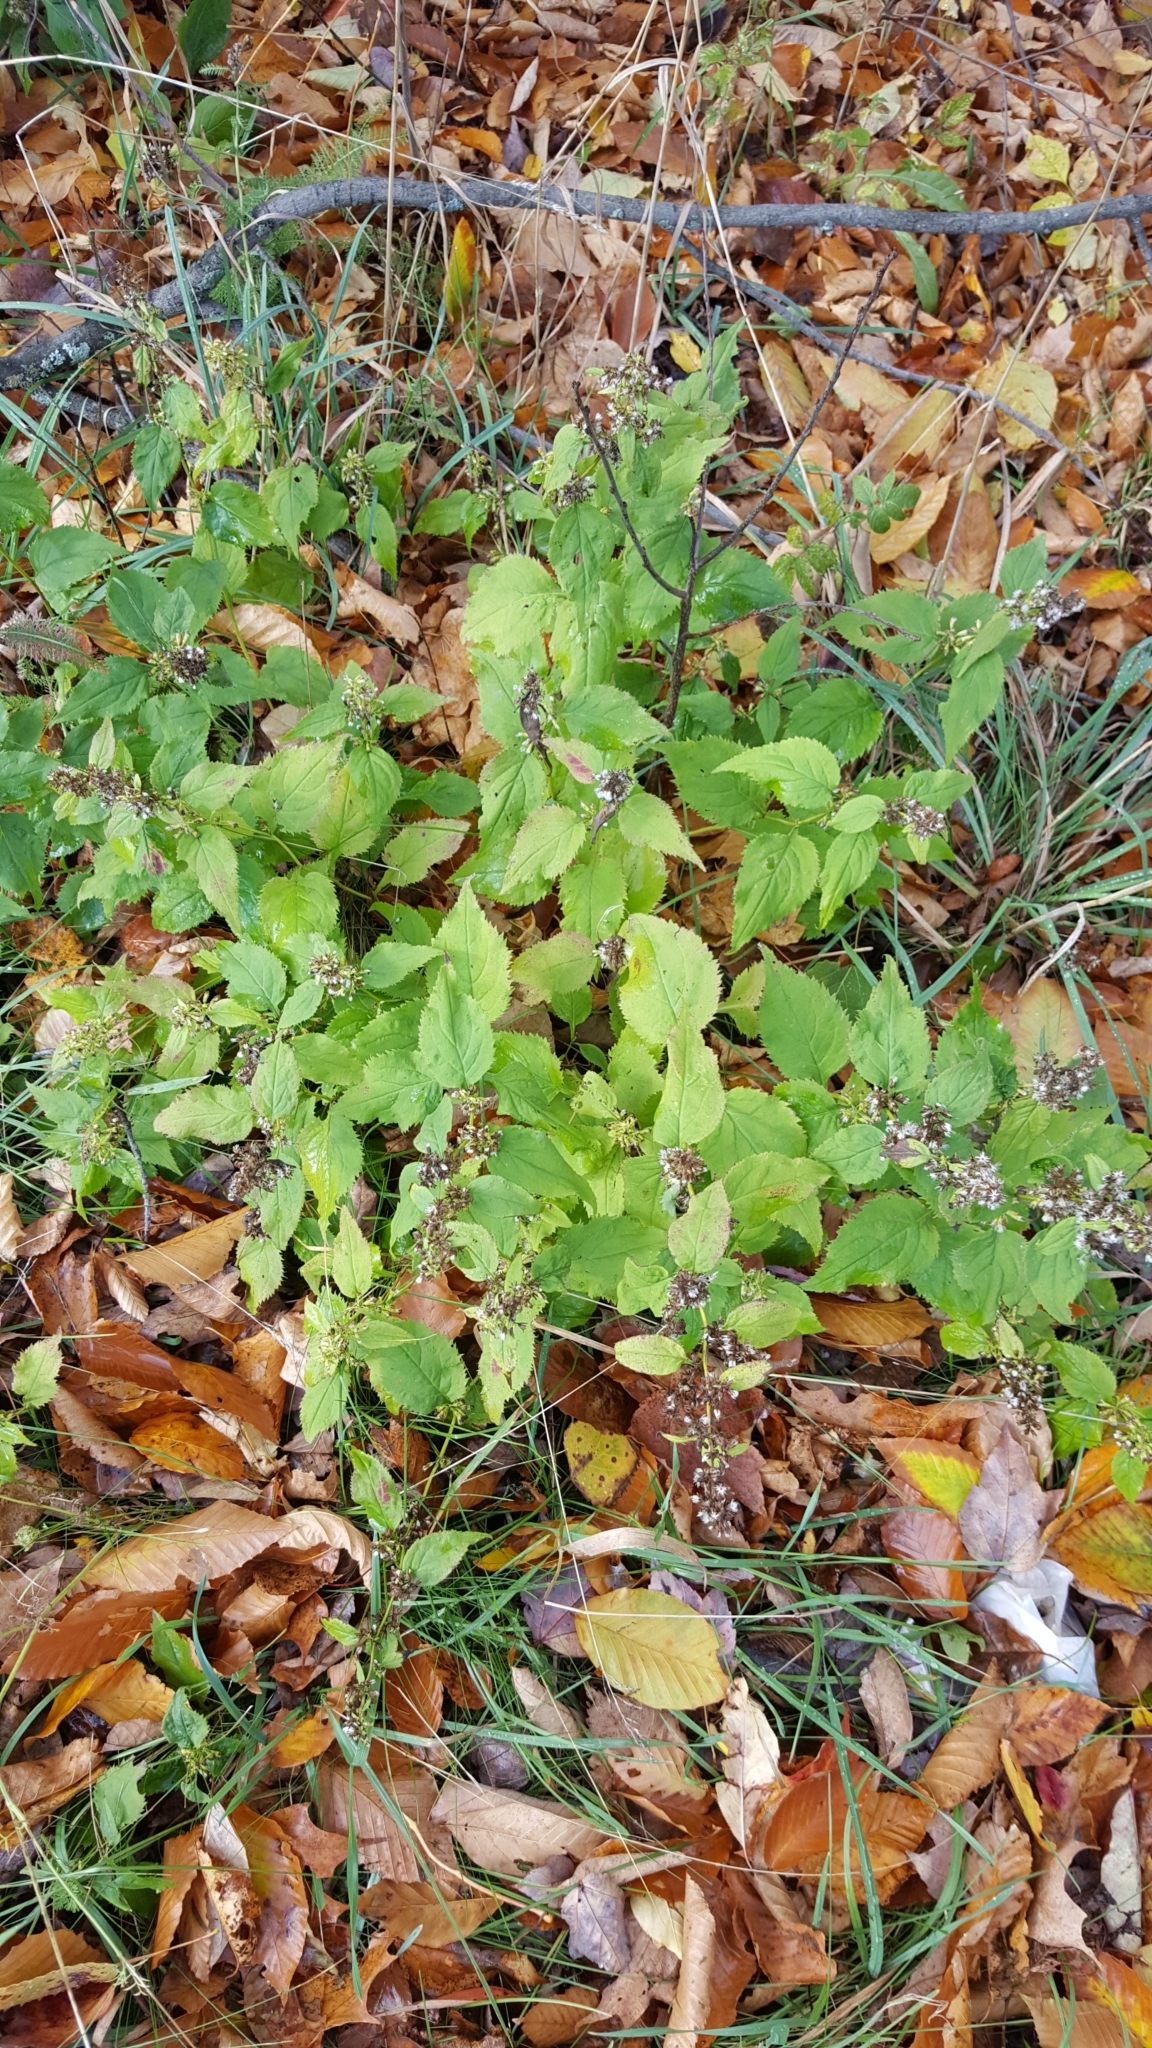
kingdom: Plantae
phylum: Tracheophyta
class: Magnoliopsida
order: Asterales
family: Asteraceae
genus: Solidago
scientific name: Solidago flexicaulis
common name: Zig-zag goldenrod
